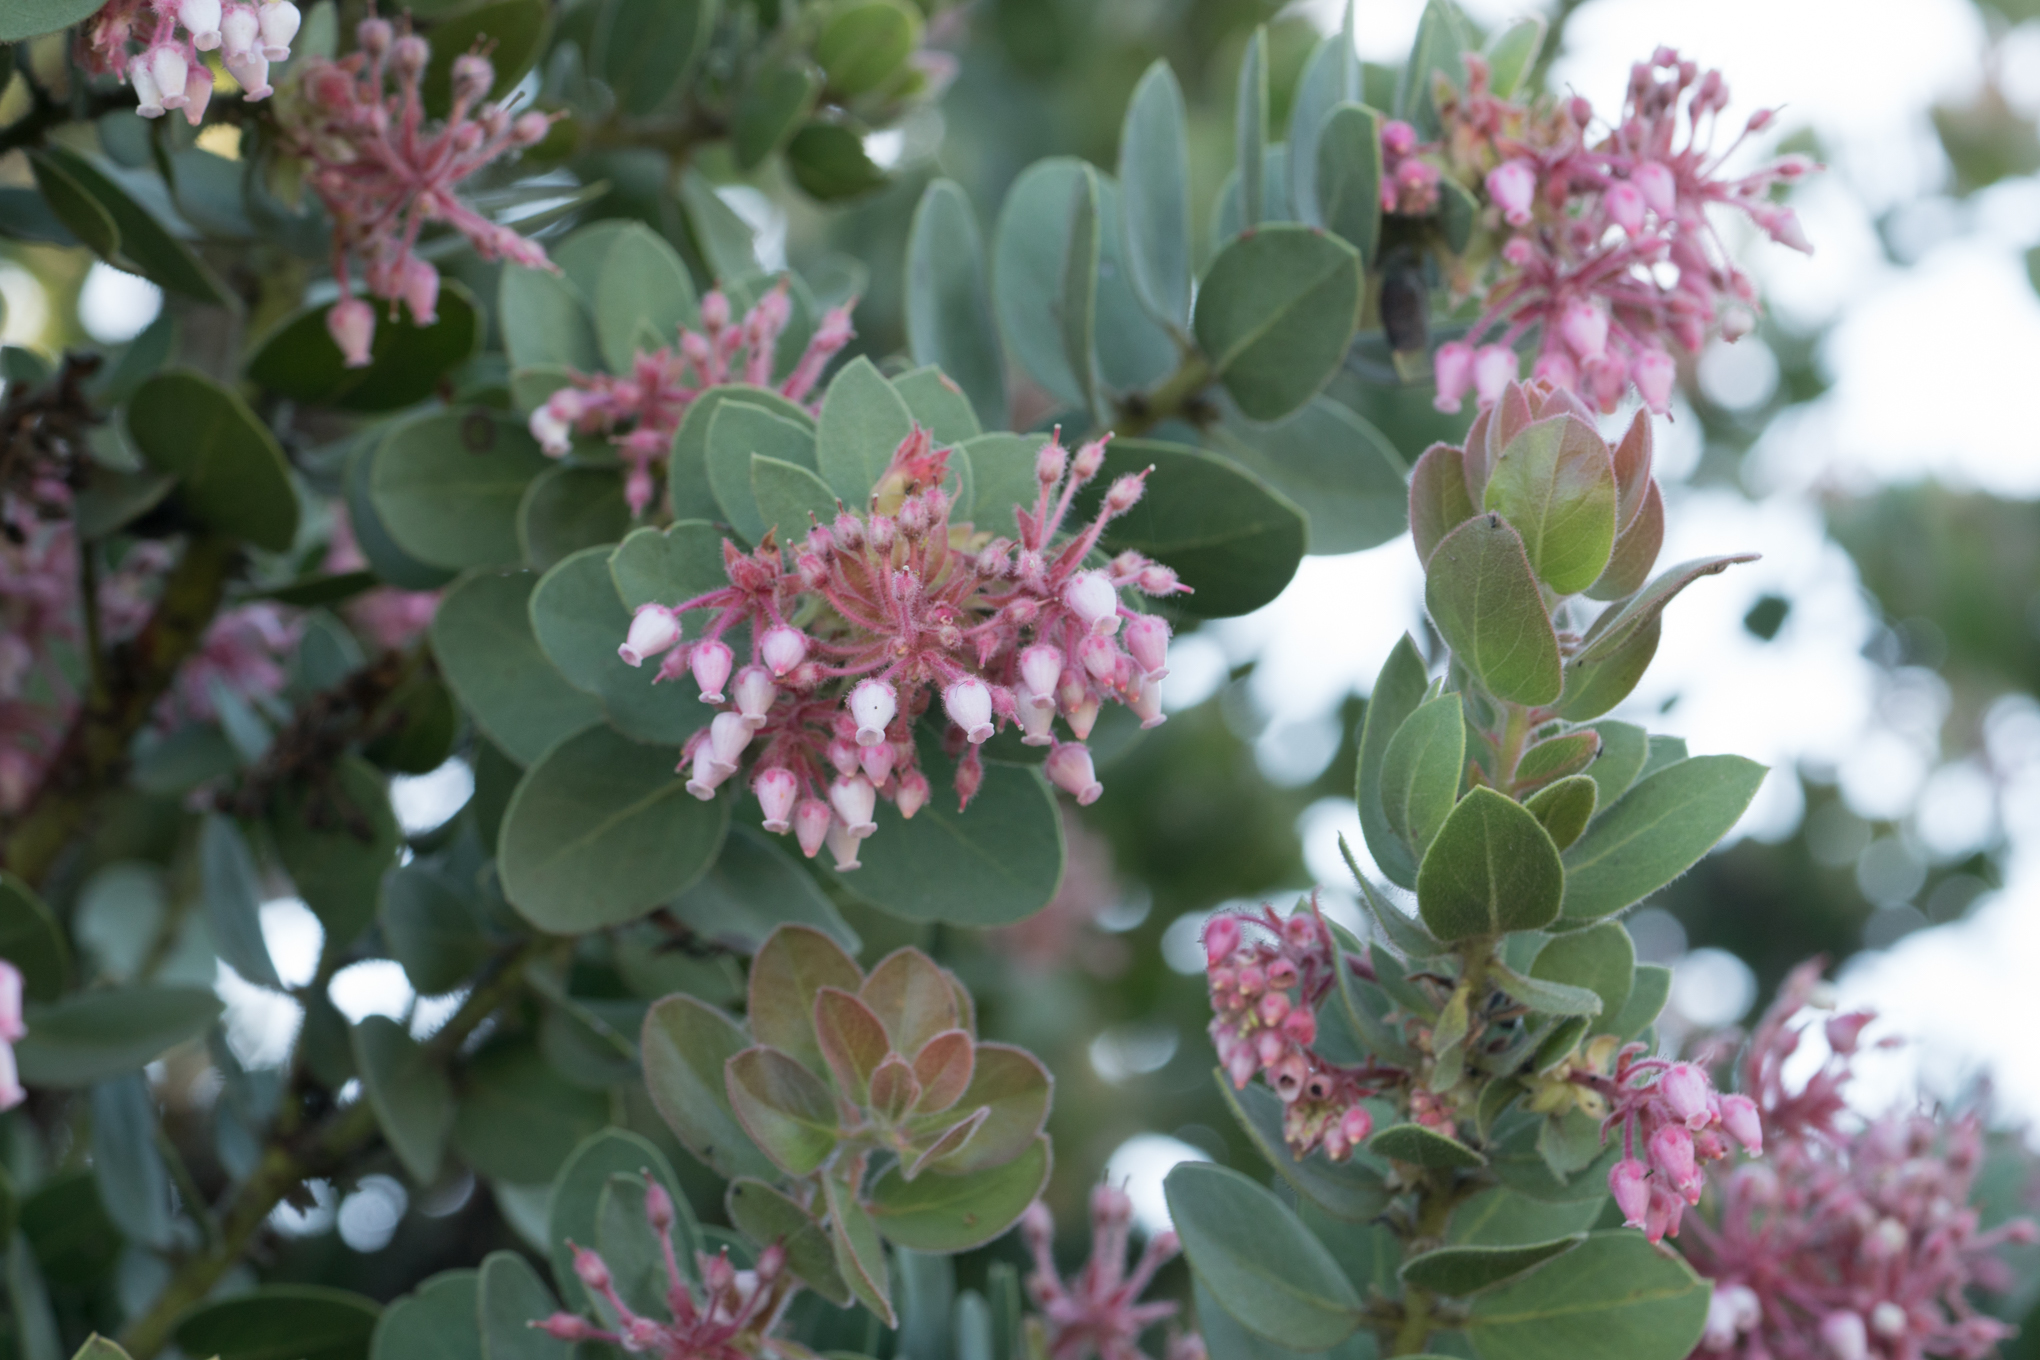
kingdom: Plantae
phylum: Tracheophyta
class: Magnoliopsida
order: Ericales
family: Ericaceae
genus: Arctostaphylos
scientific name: Arctostaphylos pringlei
